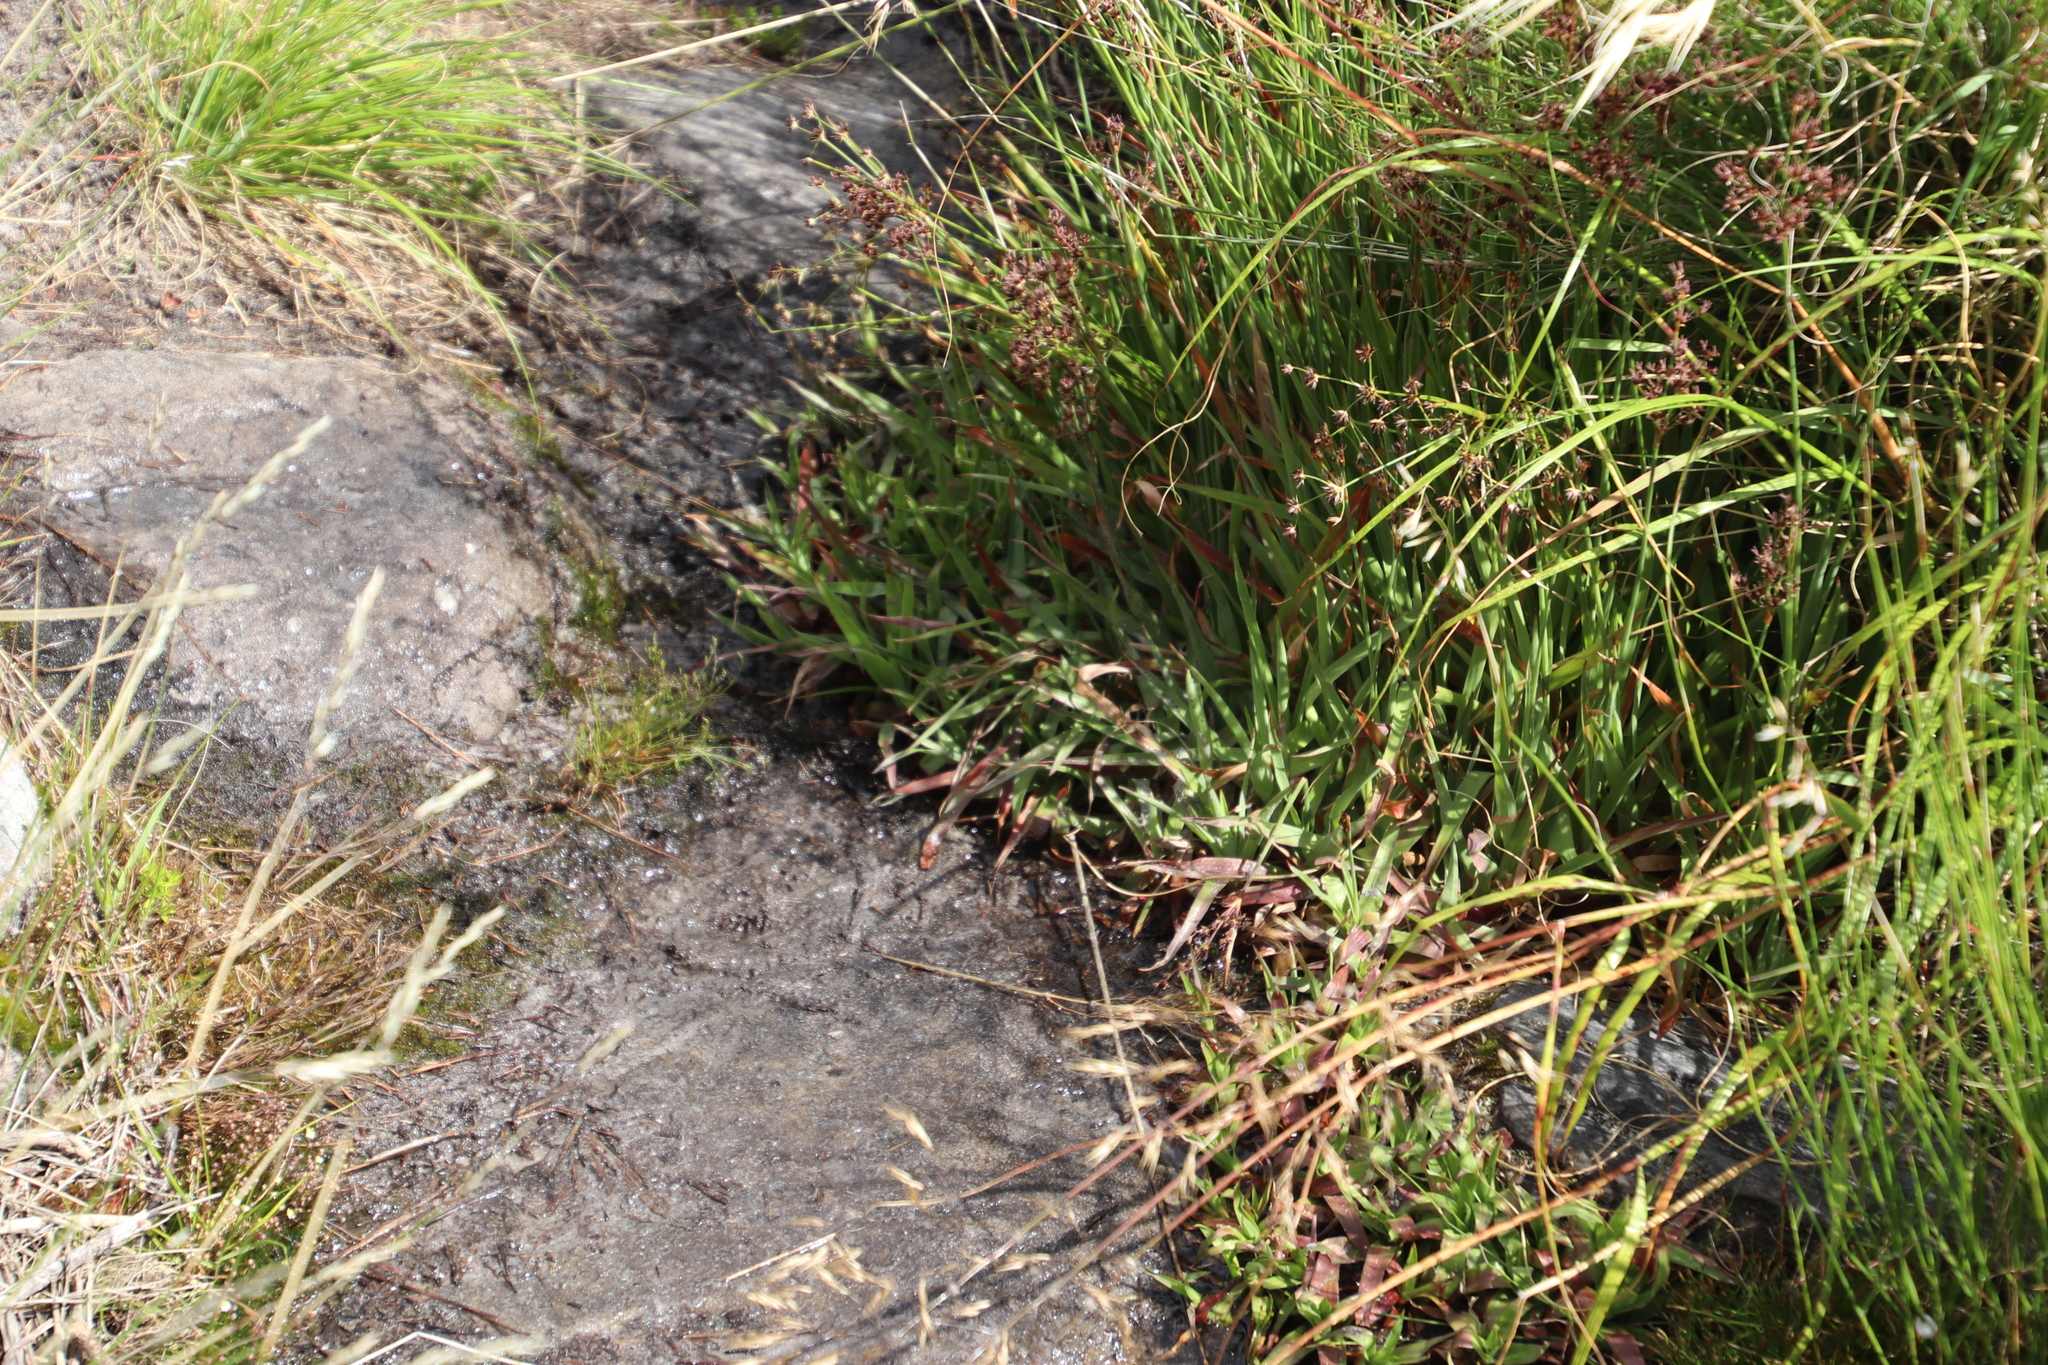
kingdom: Plantae
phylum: Tracheophyta
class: Liliopsida
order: Poales
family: Juncaceae
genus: Juncus
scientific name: Juncus lomatophyllus
